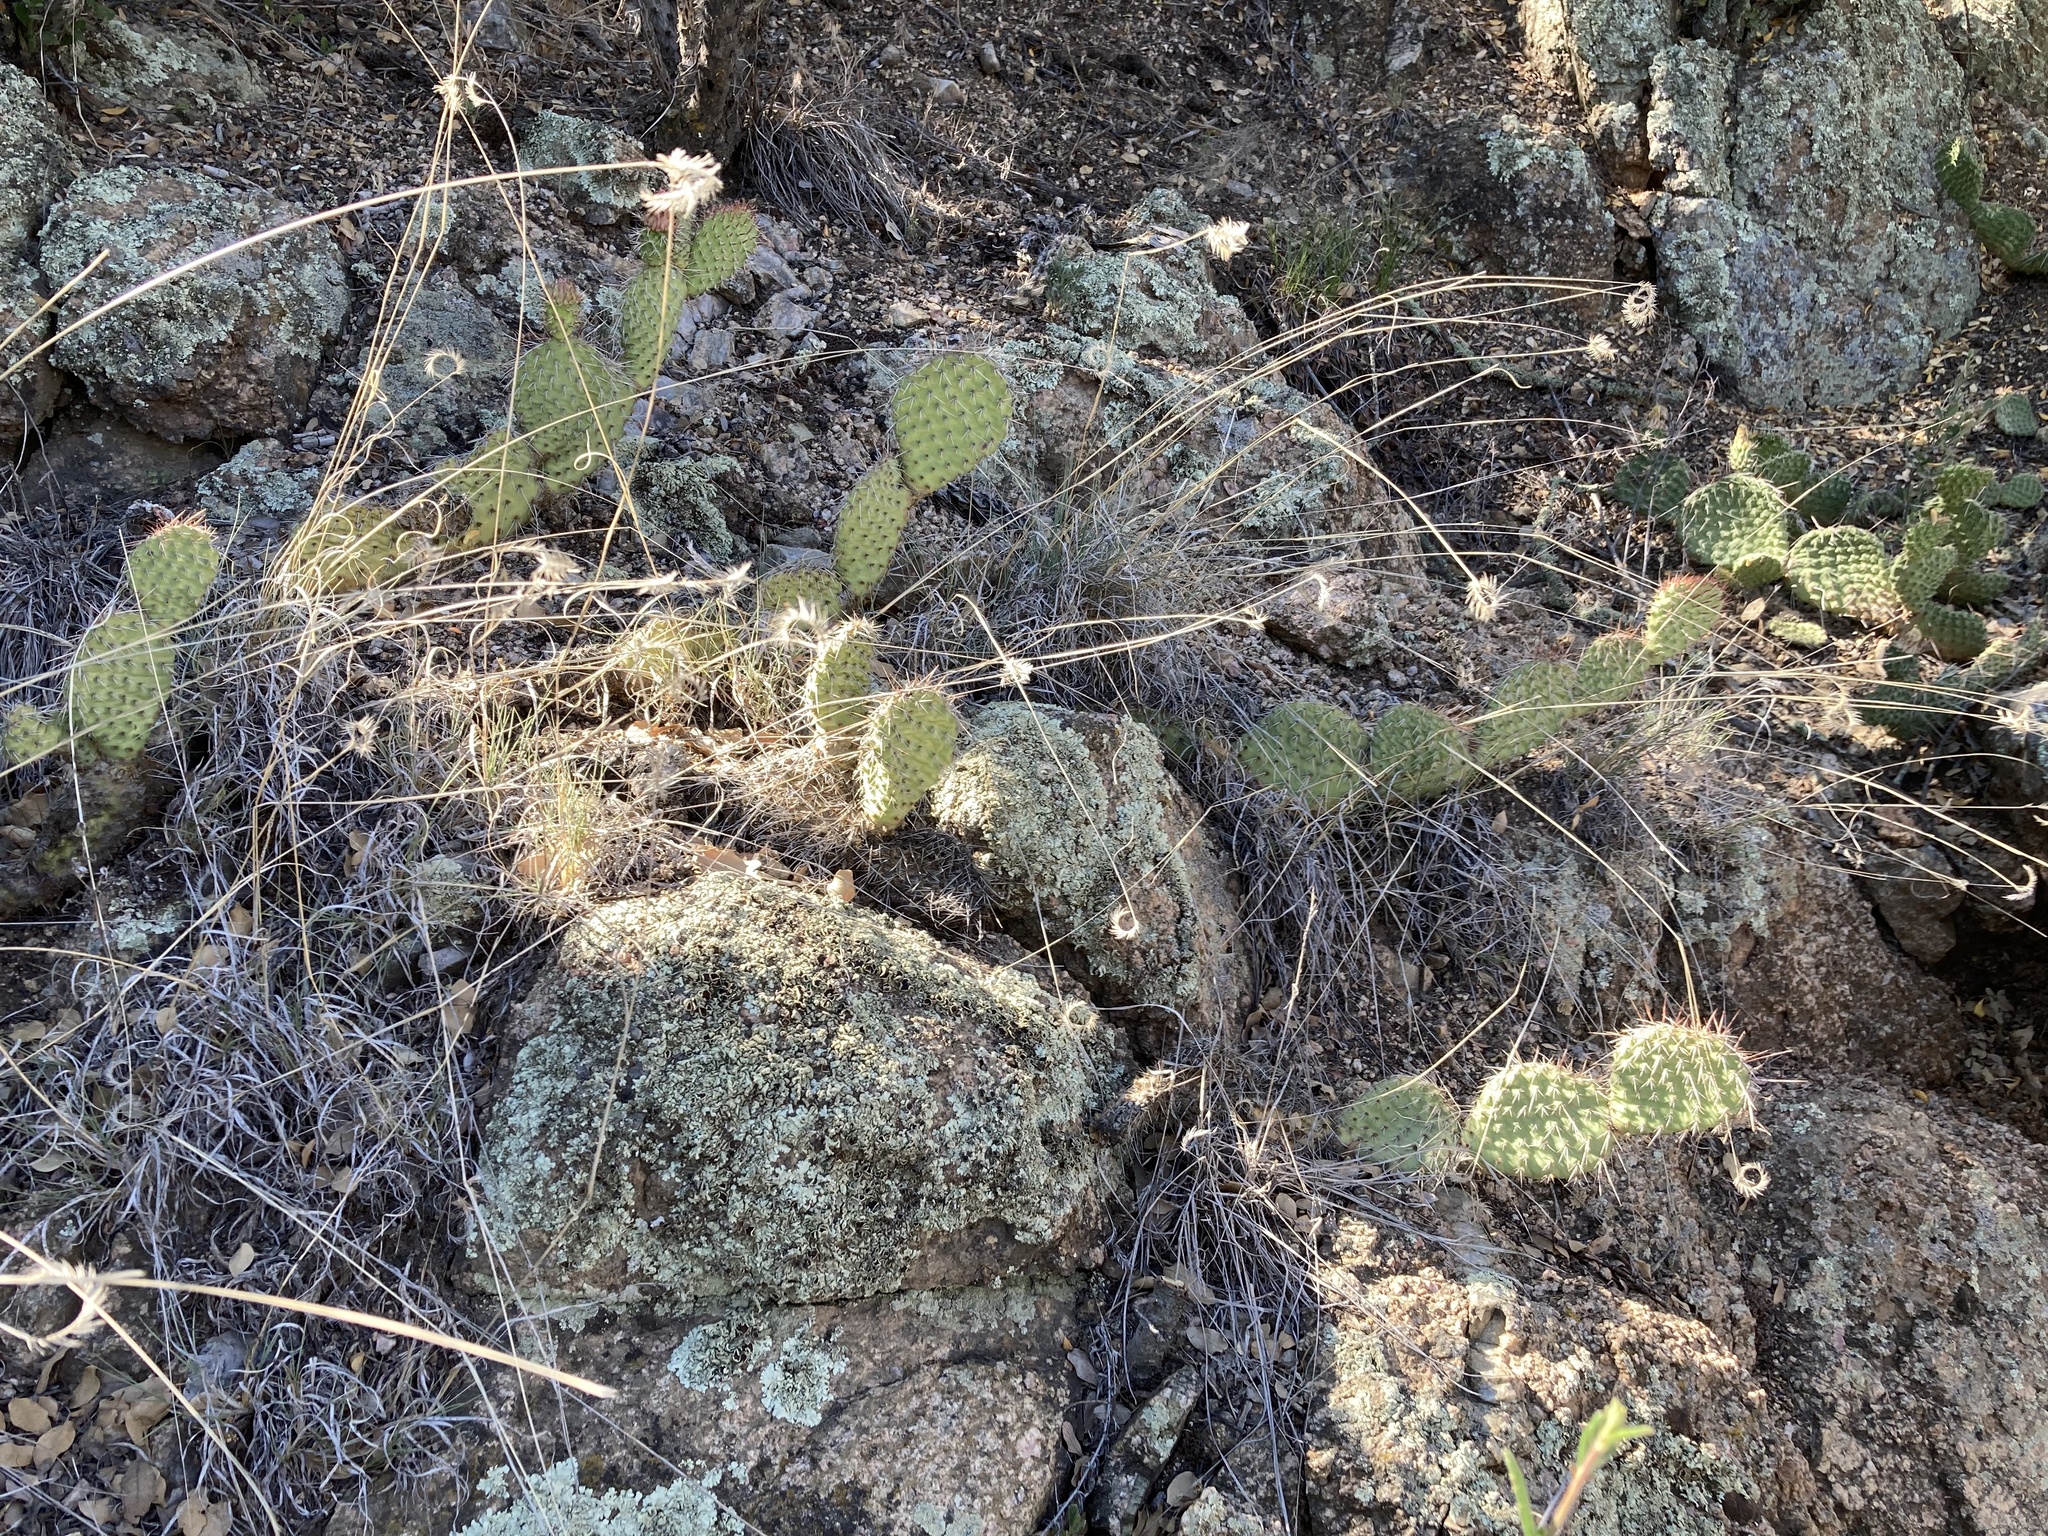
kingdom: Plantae
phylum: Tracheophyta
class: Magnoliopsida
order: Caryophyllales
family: Cactaceae
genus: Opuntia
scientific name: Opuntia polyacantha
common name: Plains prickly-pear
